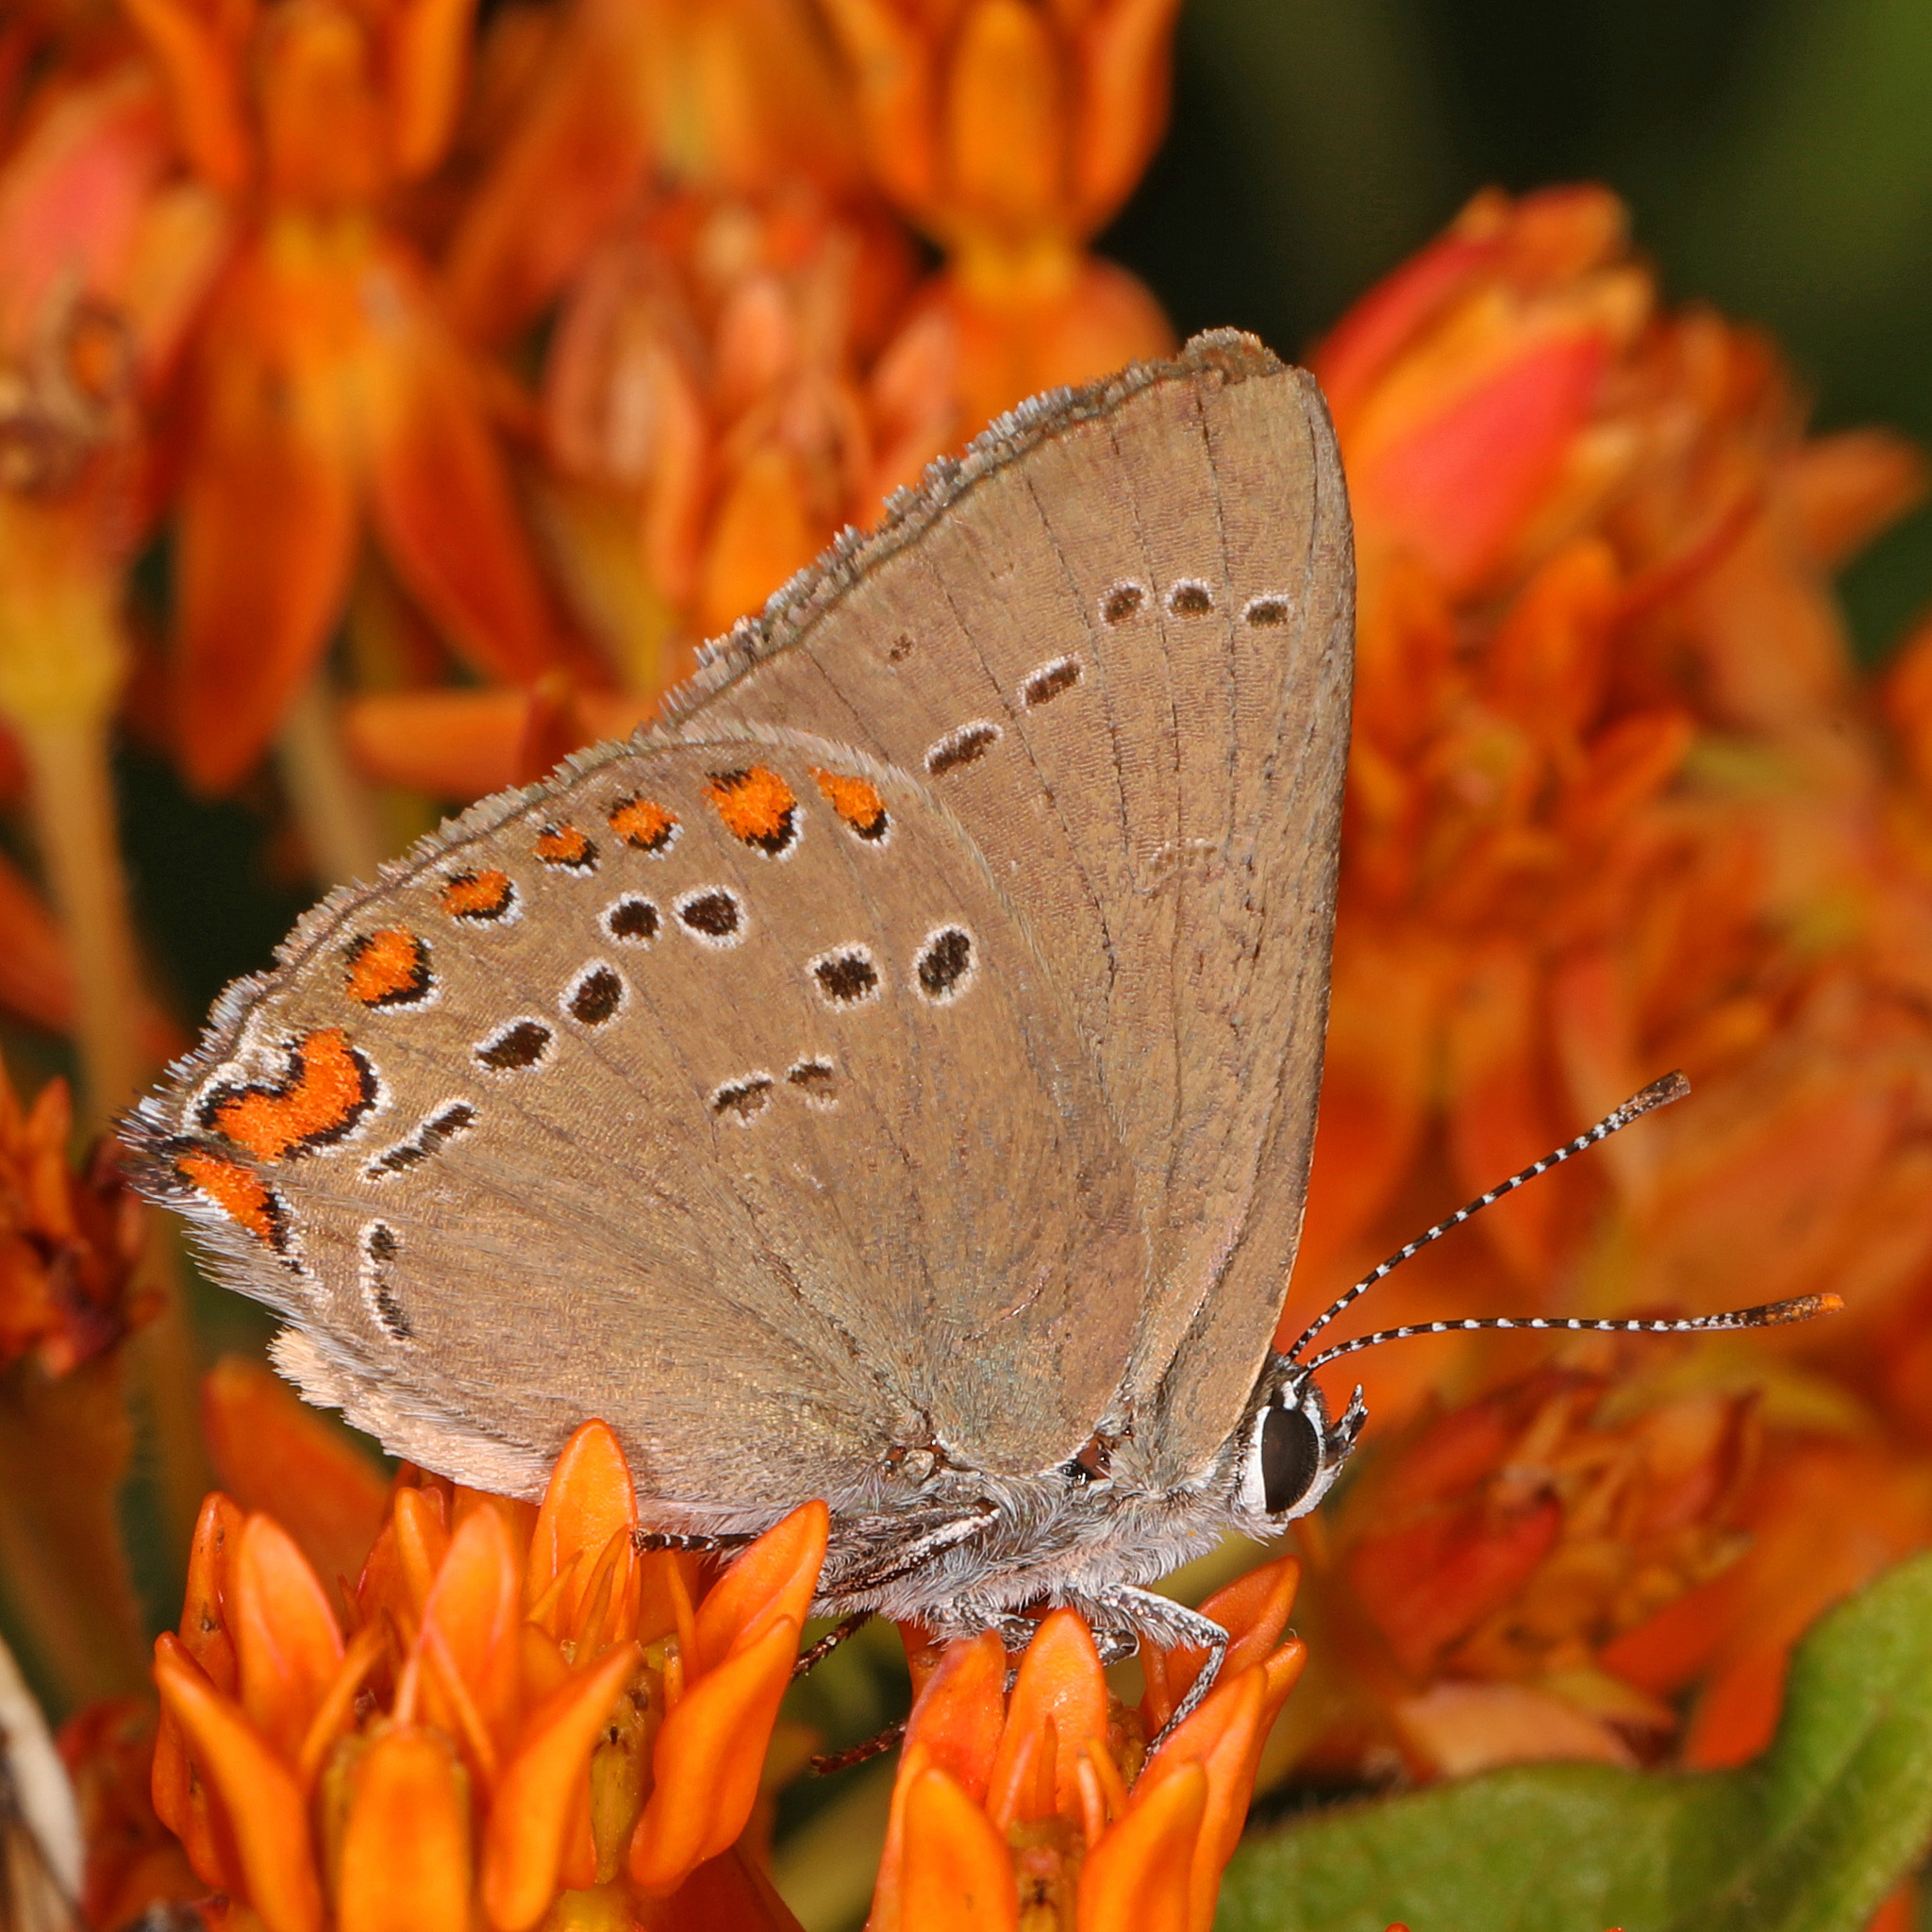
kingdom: Animalia
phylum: Arthropoda
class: Insecta
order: Lepidoptera
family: Lycaenidae
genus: Harkenclenus
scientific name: Harkenclenus titus
